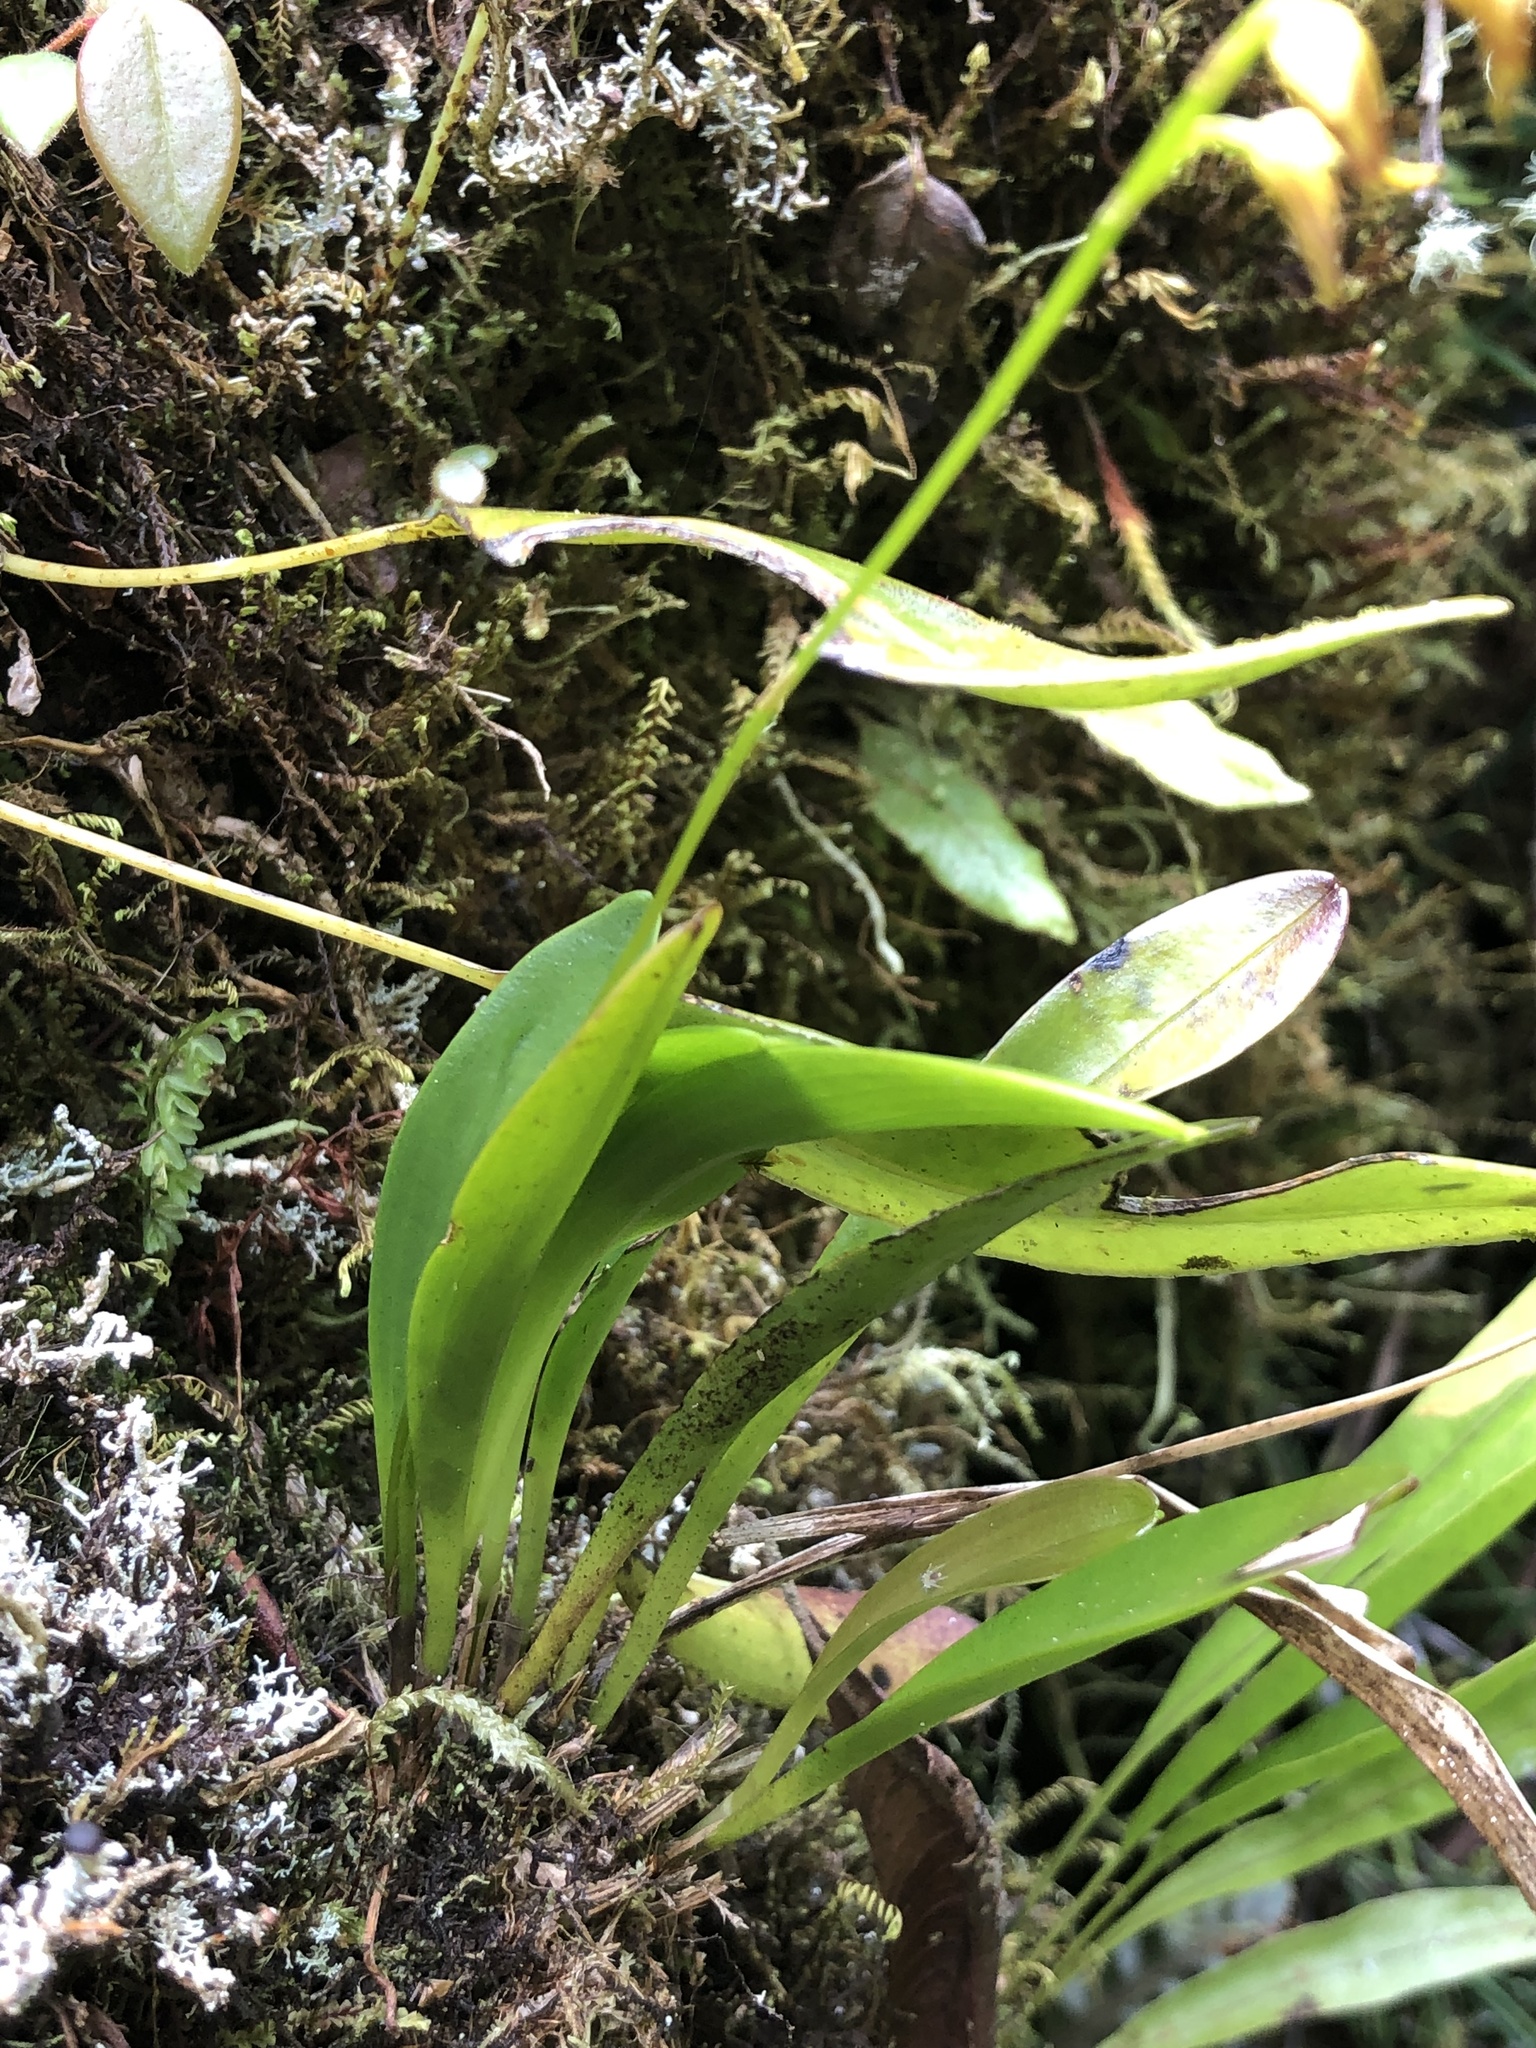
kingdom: Plantae
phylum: Tracheophyta
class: Liliopsida
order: Asparagales
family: Orchidaceae
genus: Specklinia
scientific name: Specklinia gracillima
